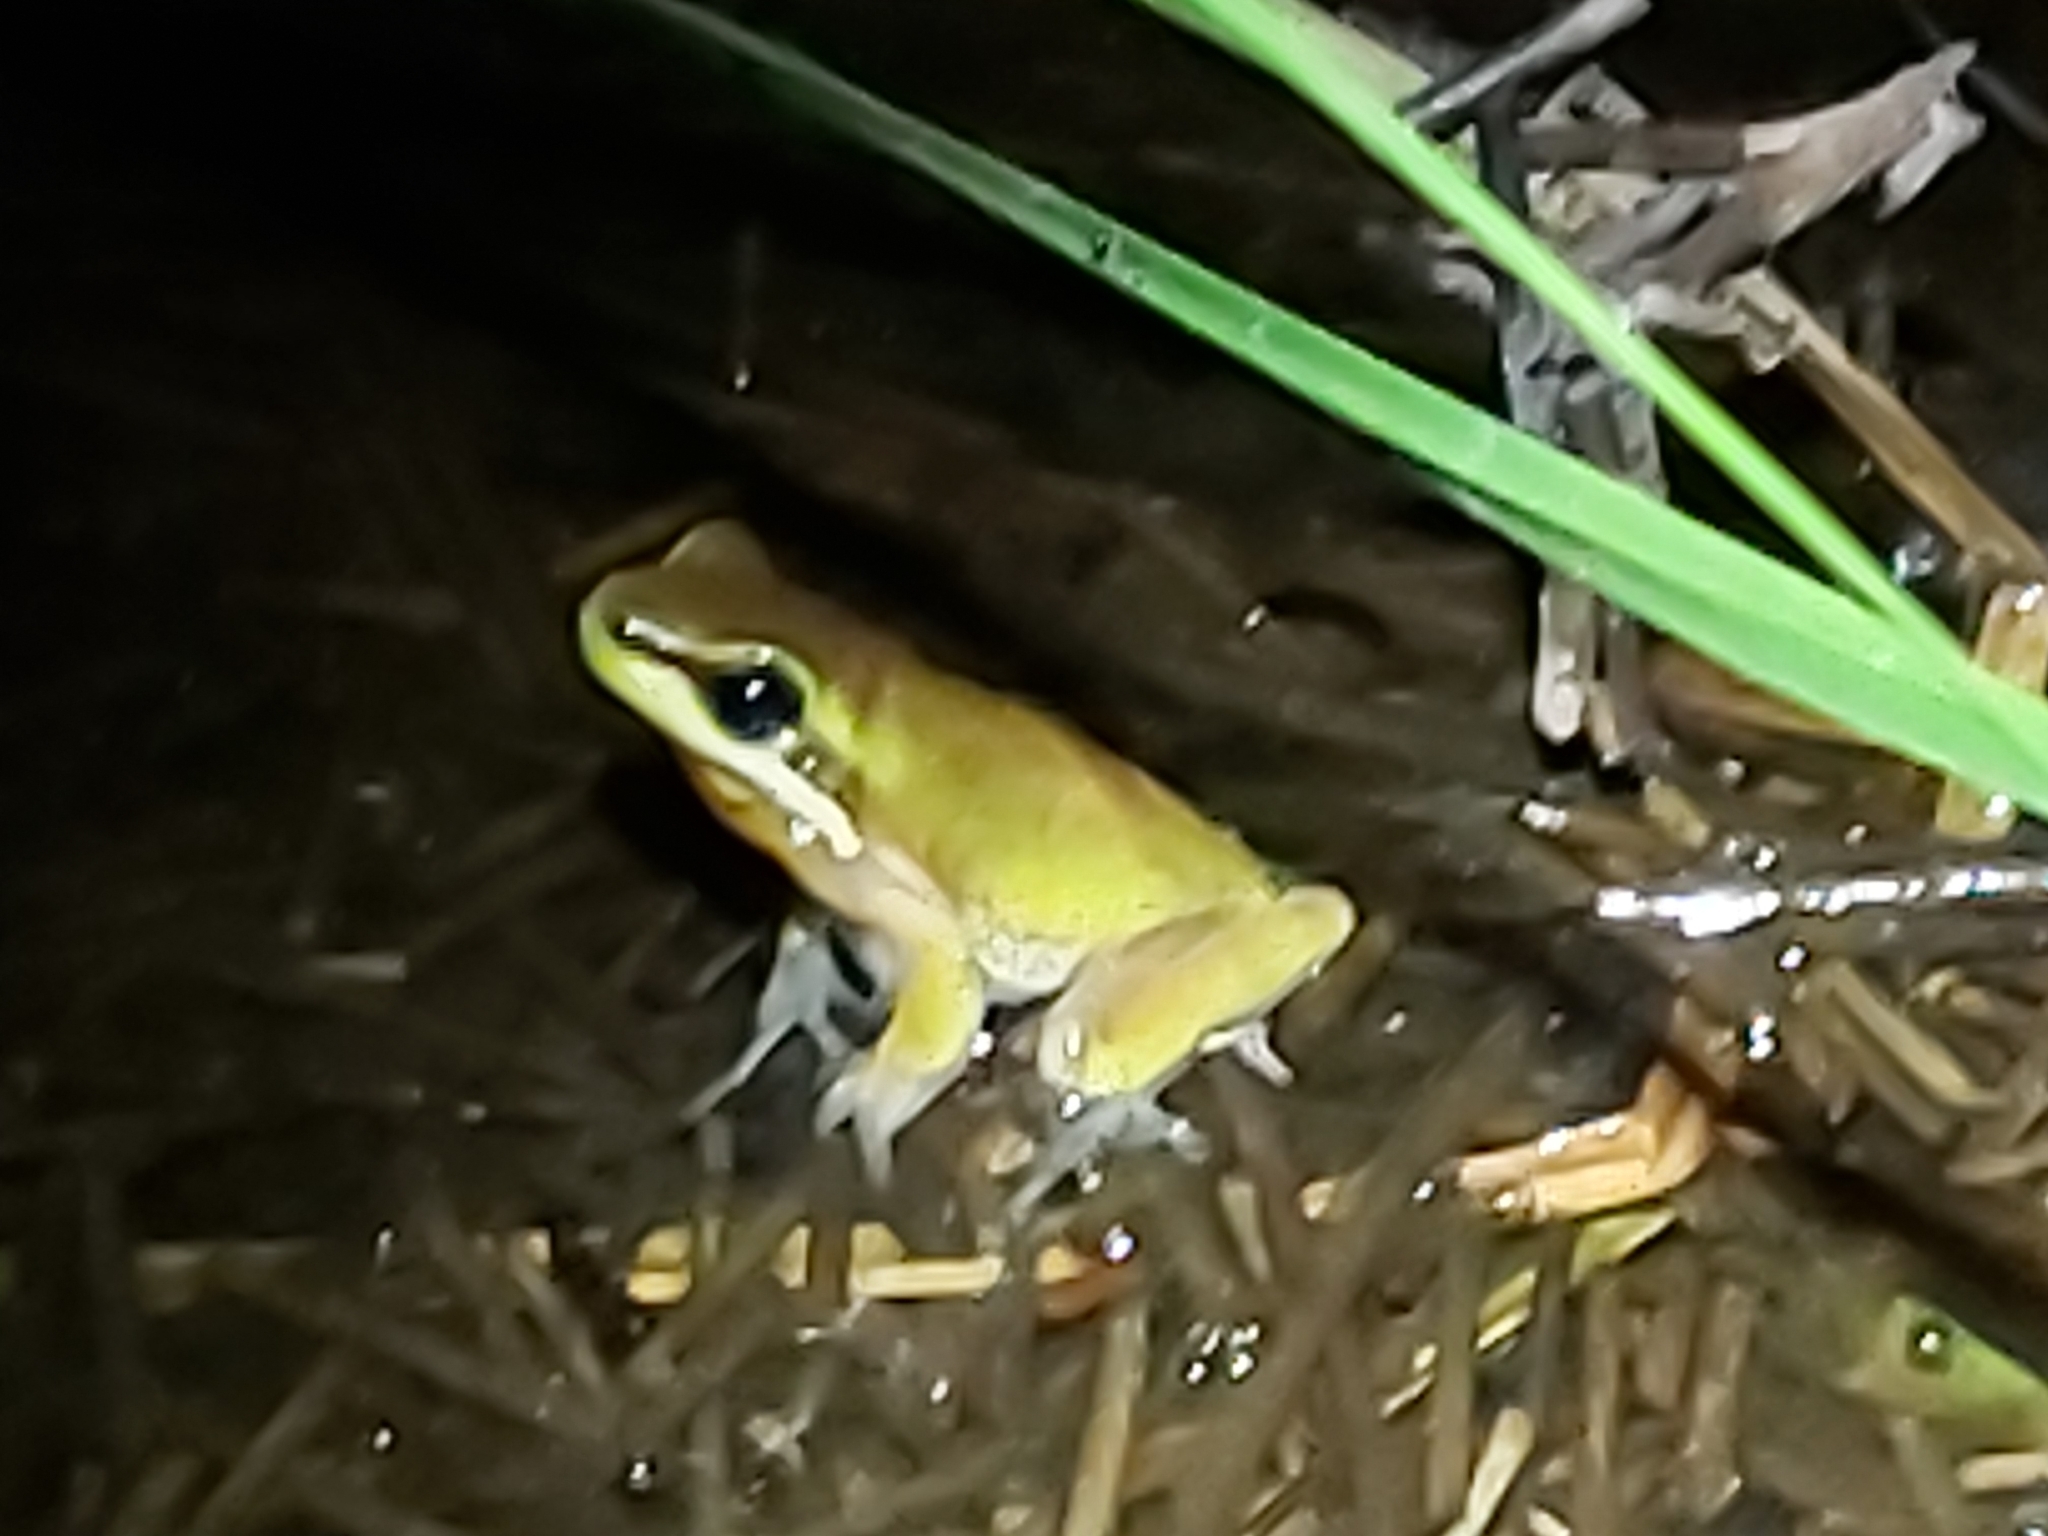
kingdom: Animalia
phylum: Chordata
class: Amphibia
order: Anura
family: Pelodryadidae
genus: Litoria
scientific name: Litoria fallax
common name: Eastern dwarf treefrog
